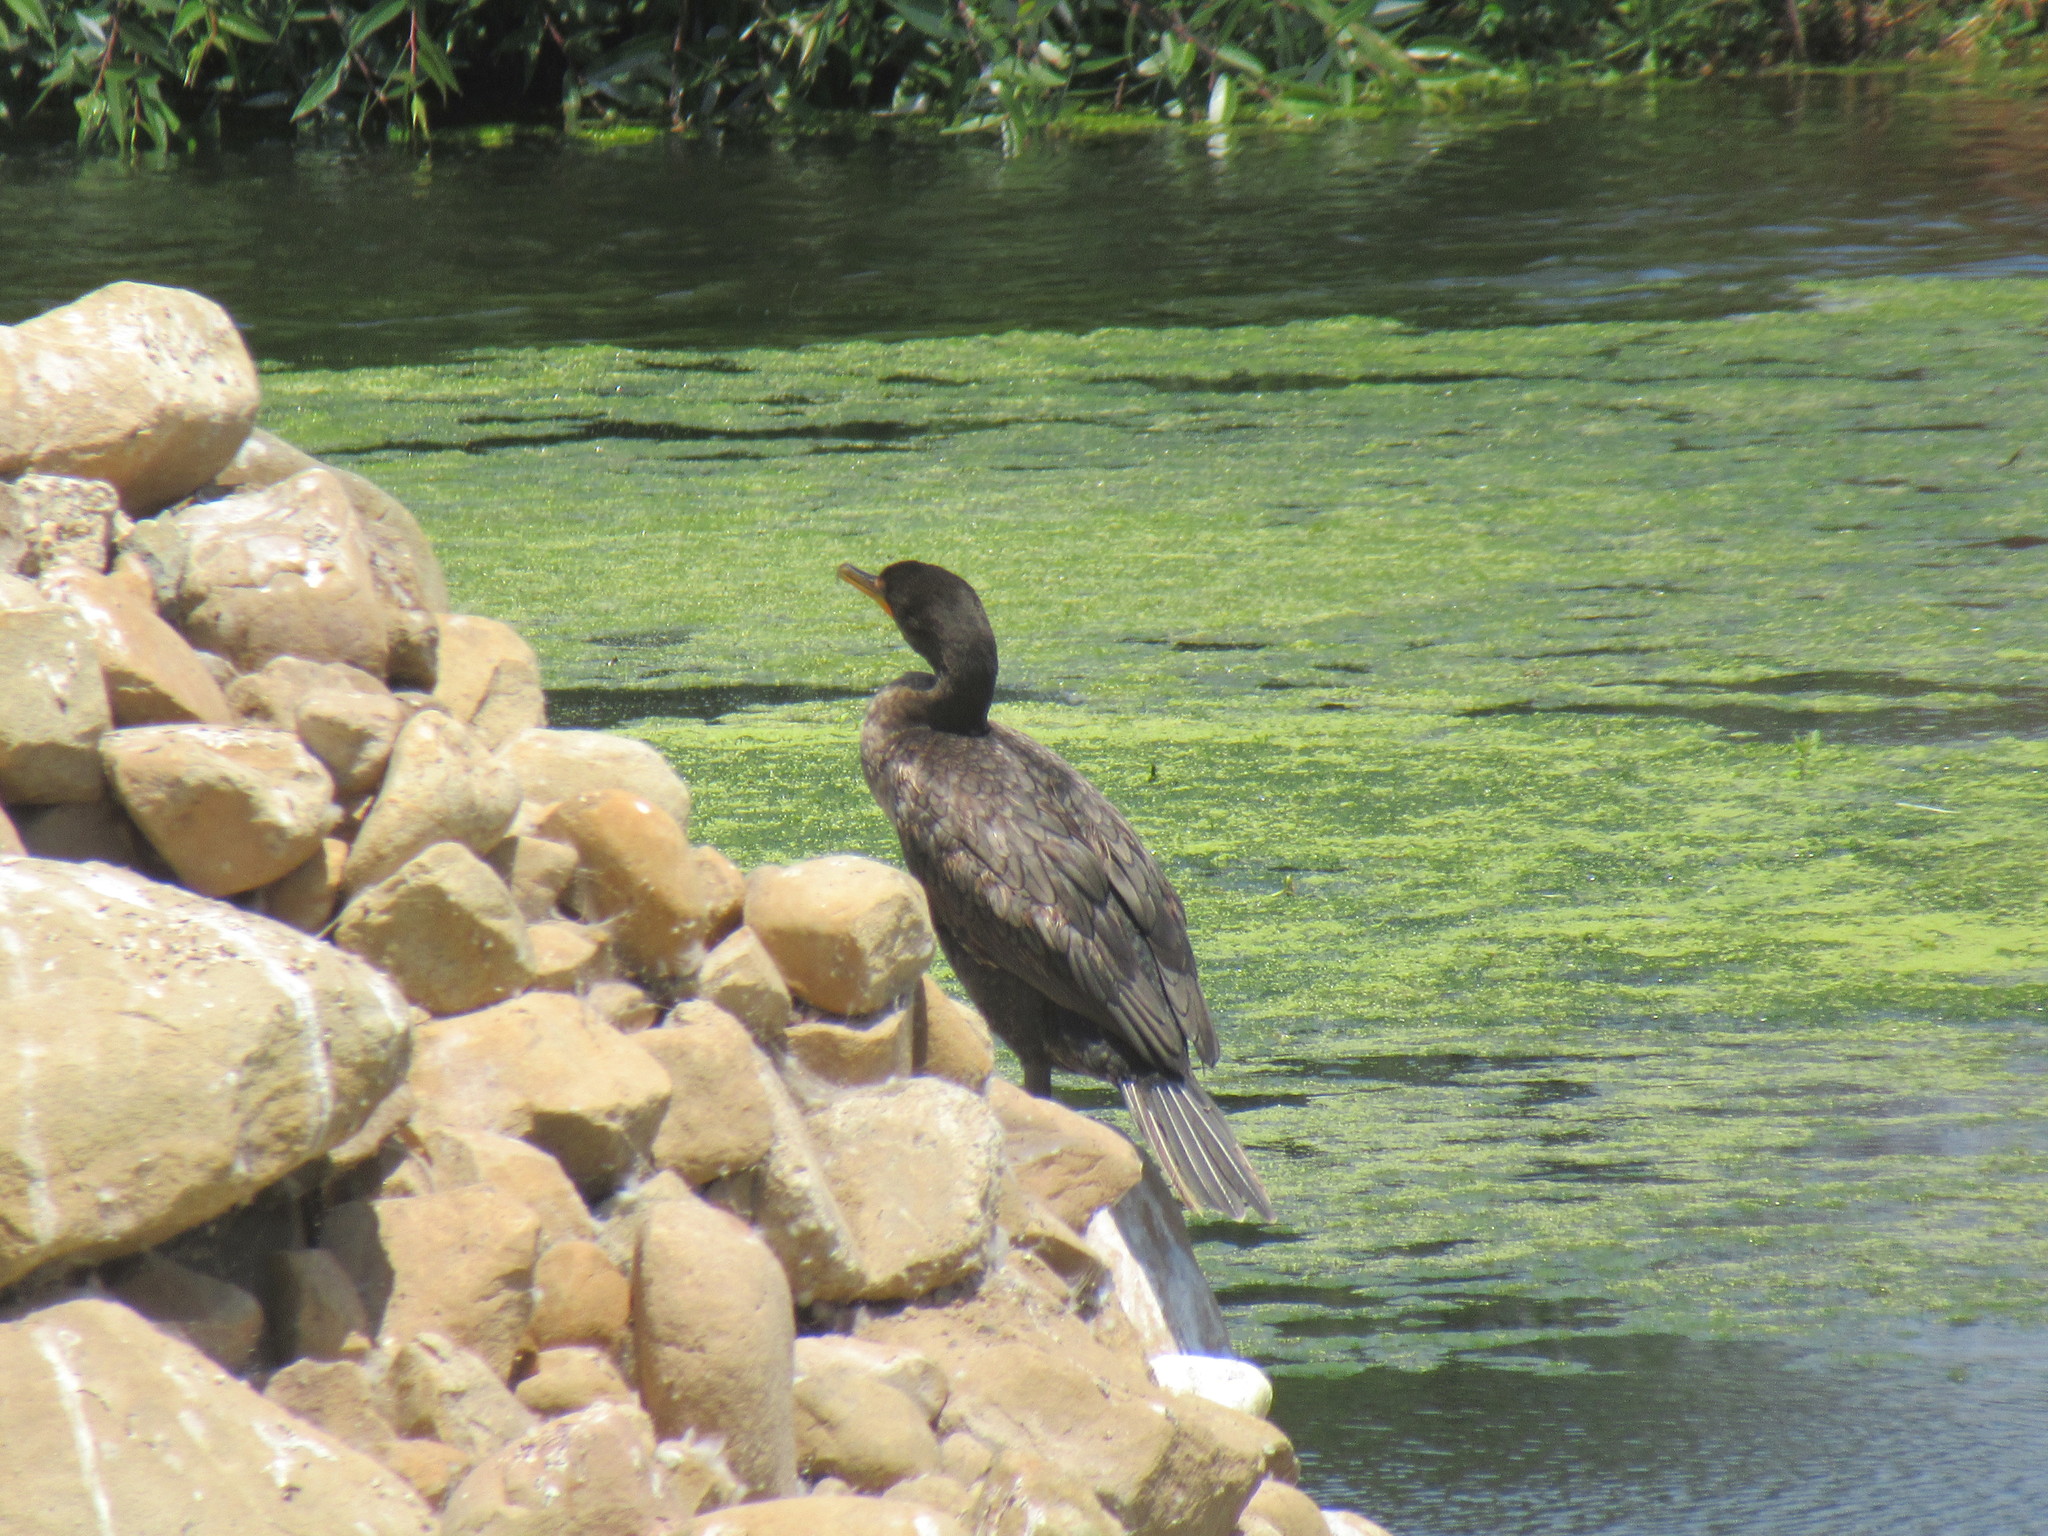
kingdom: Animalia
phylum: Chordata
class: Aves
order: Suliformes
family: Phalacrocoracidae
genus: Phalacrocorax
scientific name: Phalacrocorax auritus
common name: Double-crested cormorant
